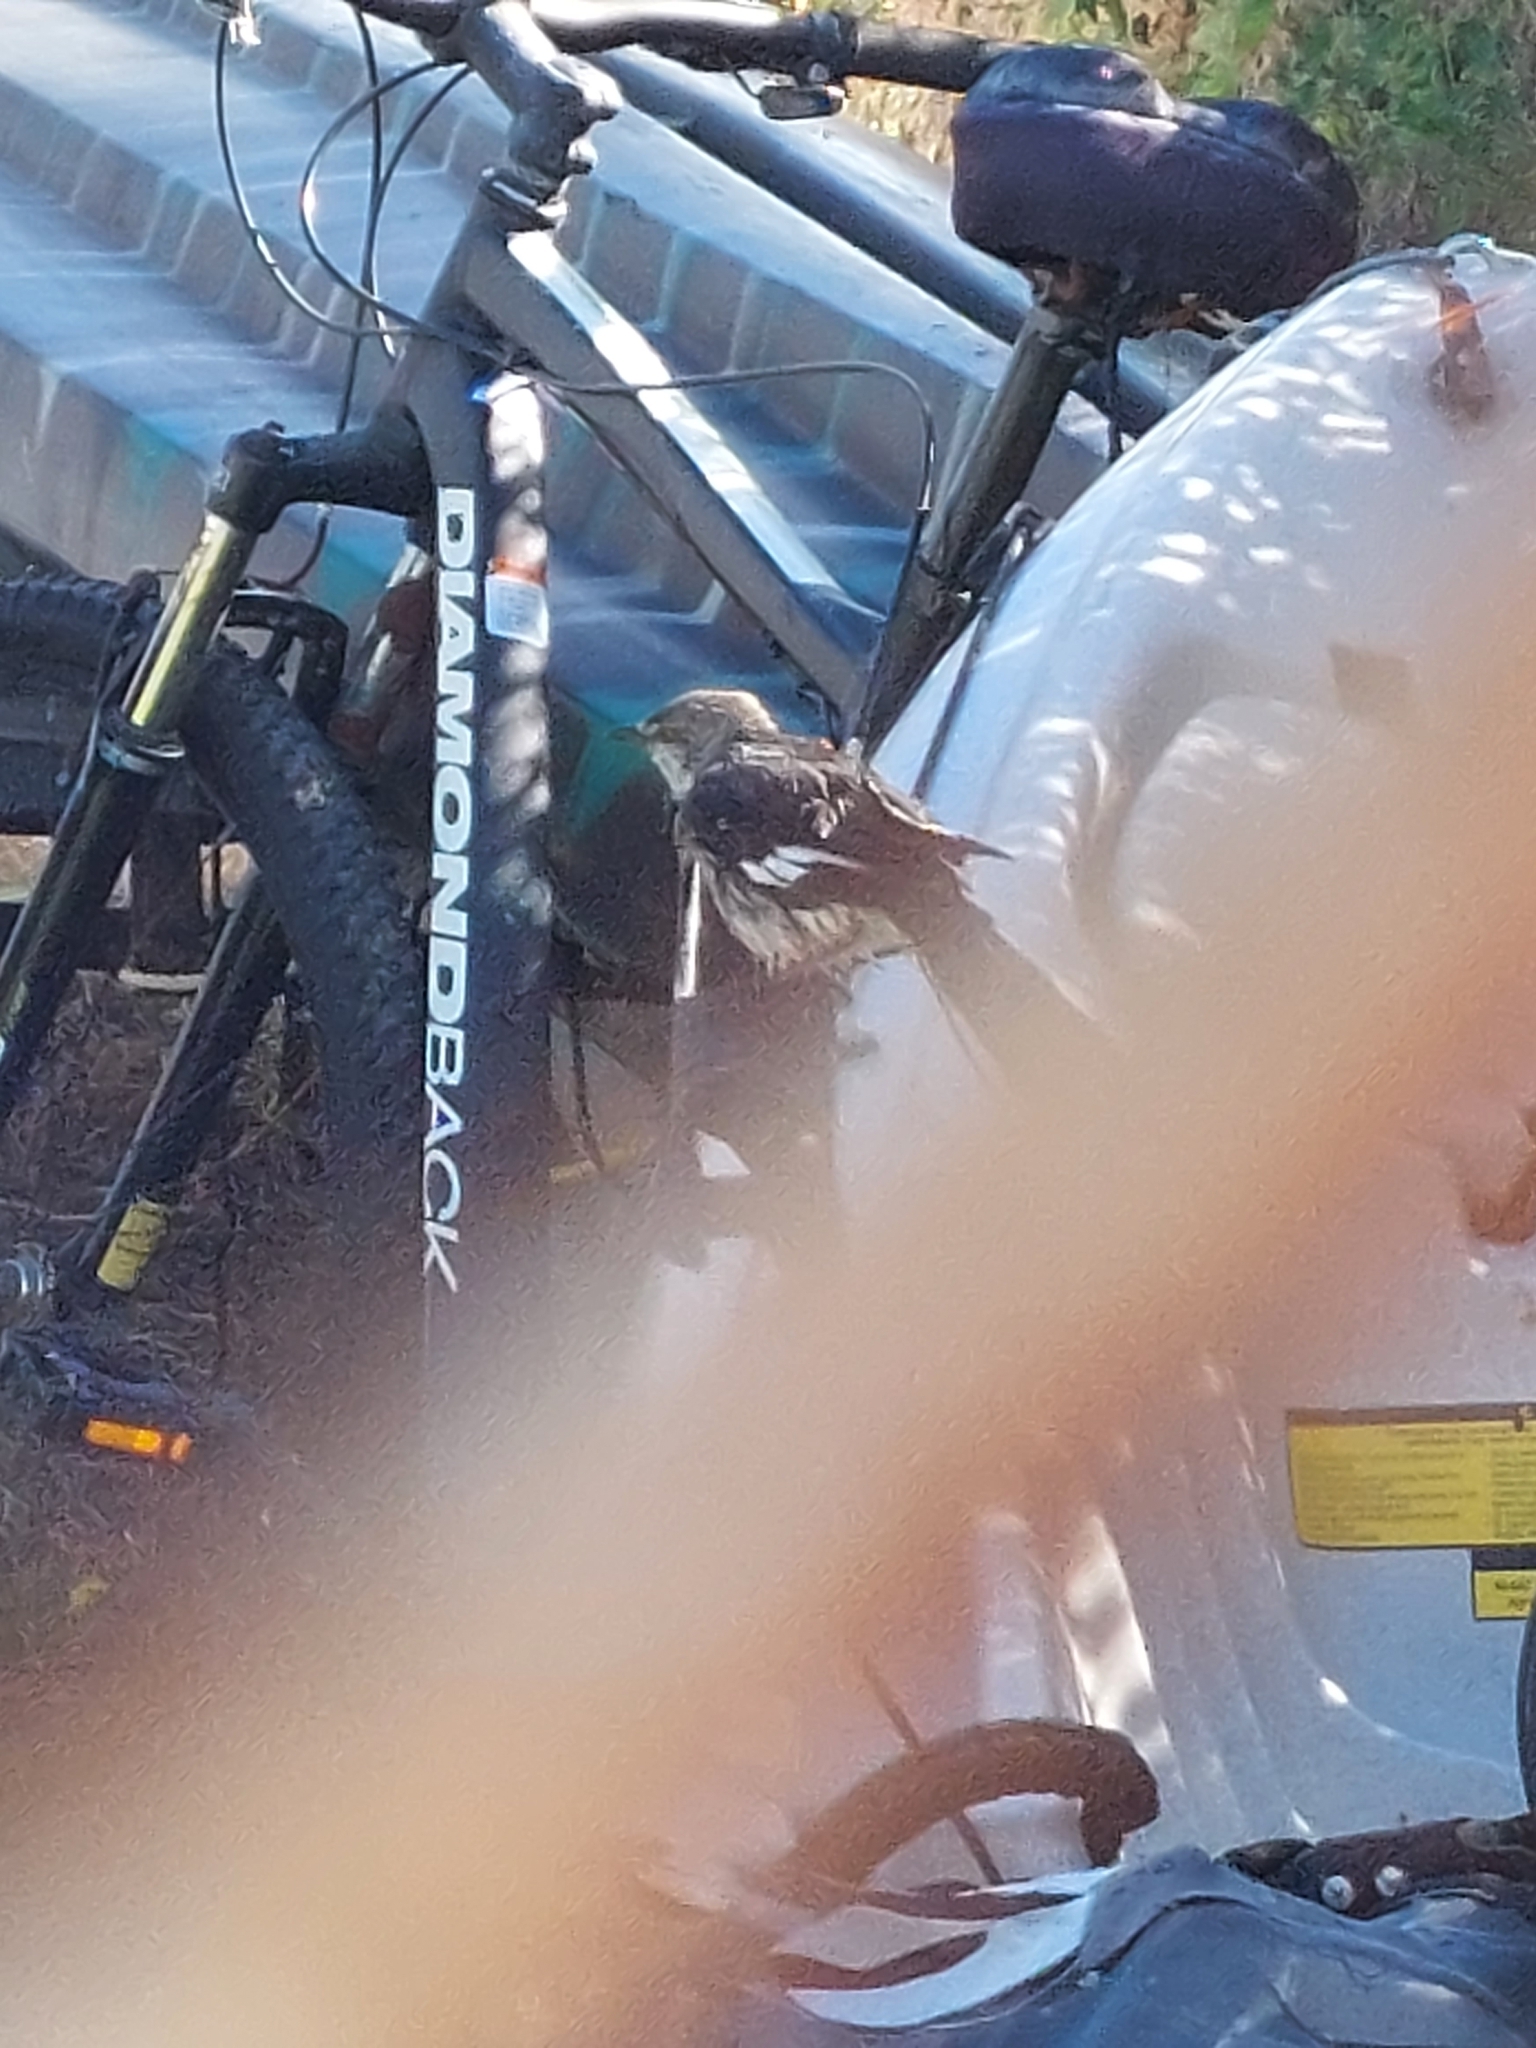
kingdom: Animalia
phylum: Chordata
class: Aves
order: Passeriformes
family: Mimidae
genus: Mimus
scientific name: Mimus polyglottos
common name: Northern mockingbird
